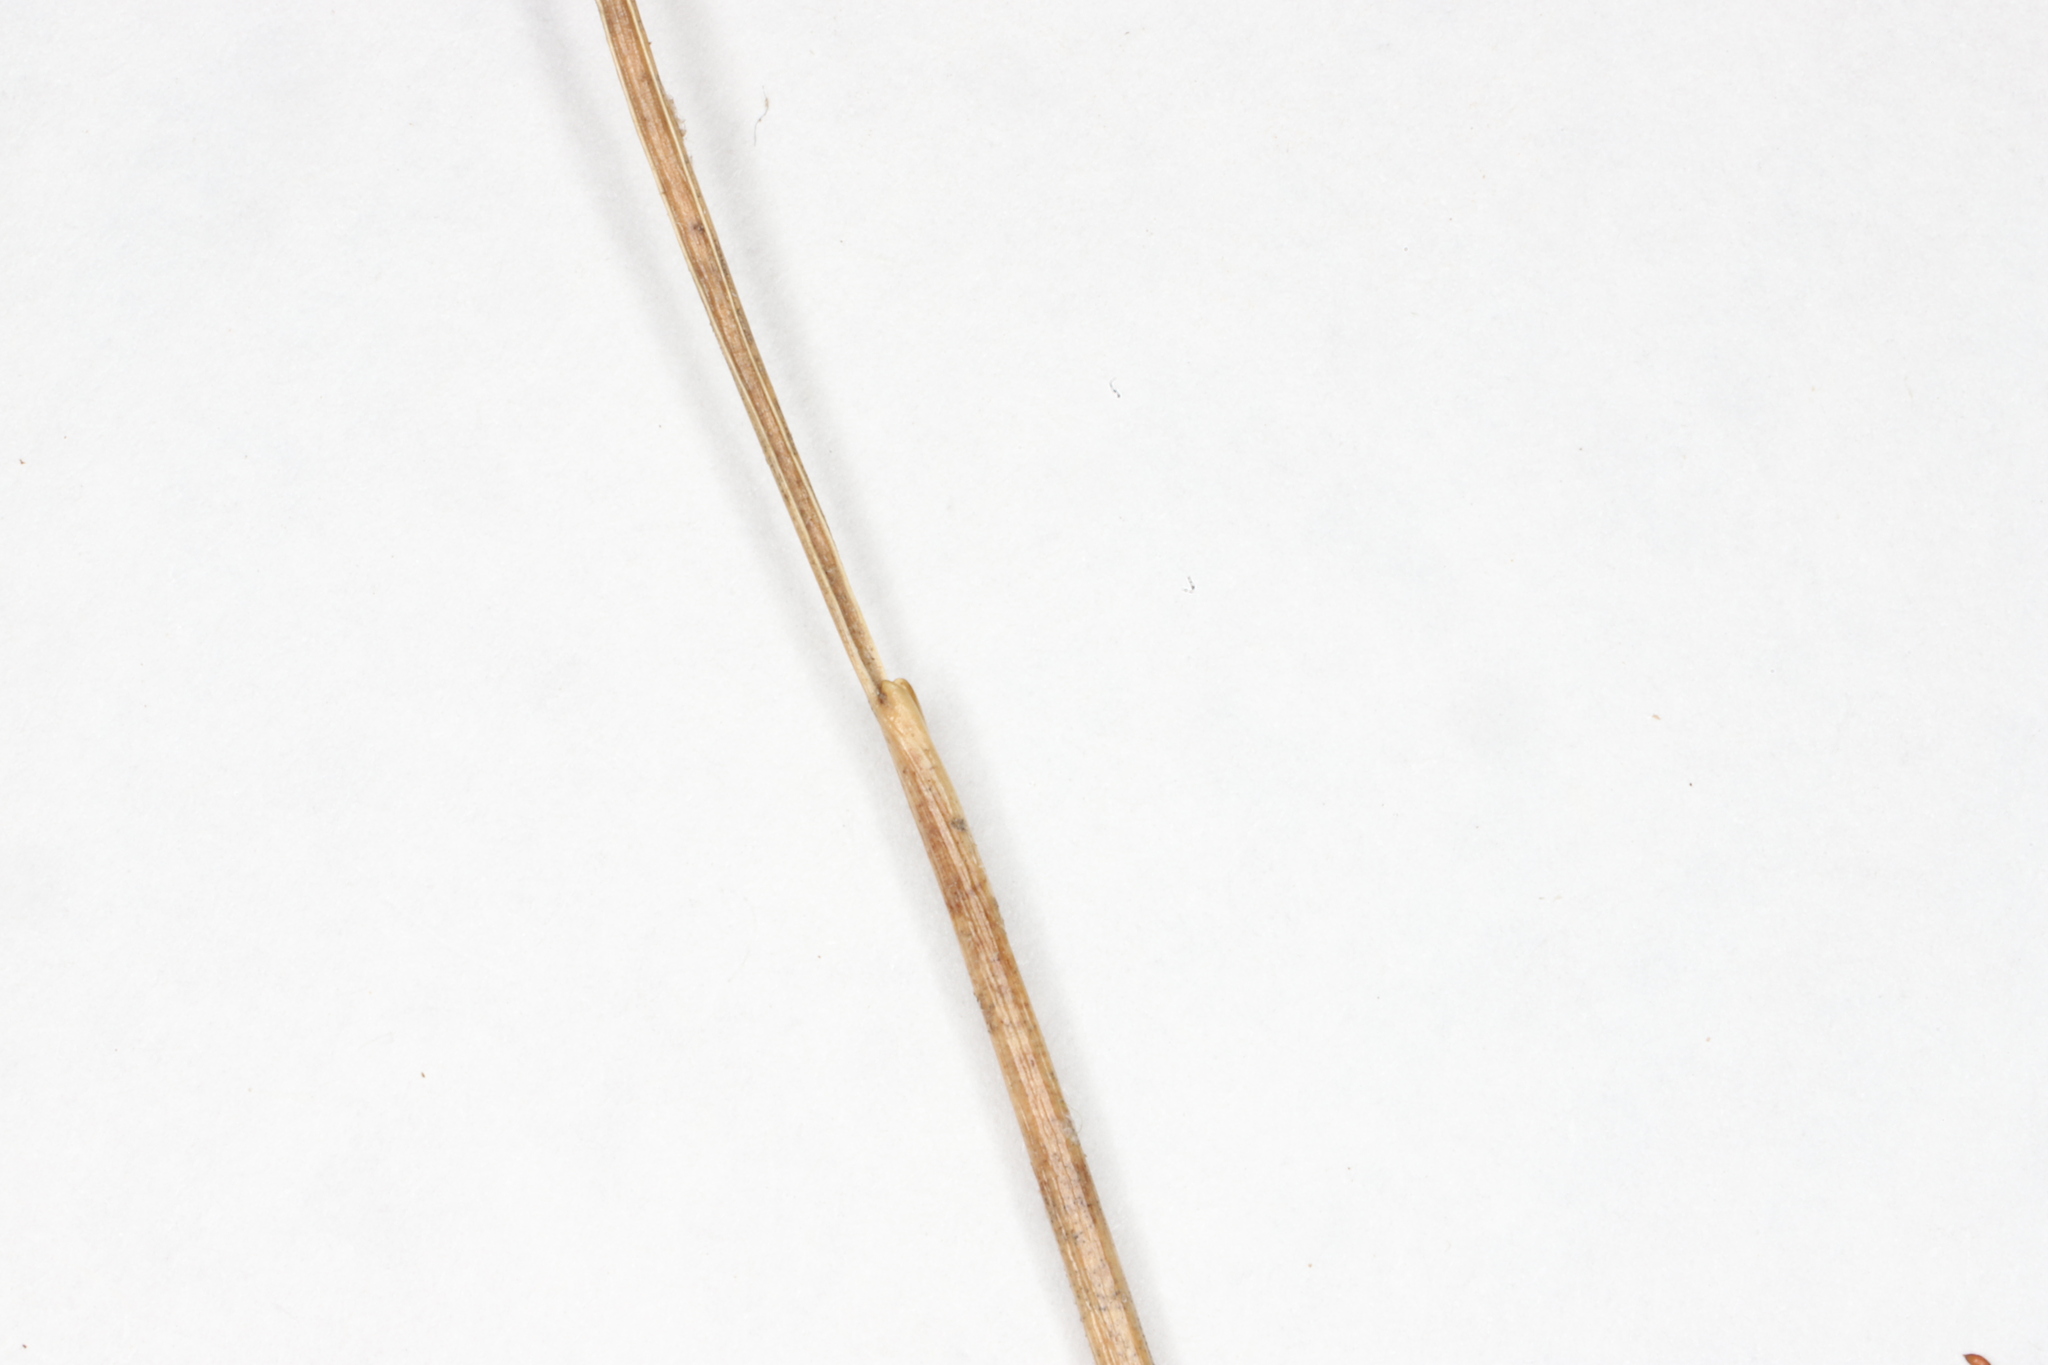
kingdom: Plantae
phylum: Tracheophyta
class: Liliopsida
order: Poales
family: Juncaceae
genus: Juncus
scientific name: Juncus dudleyi
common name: Dudley's rush
